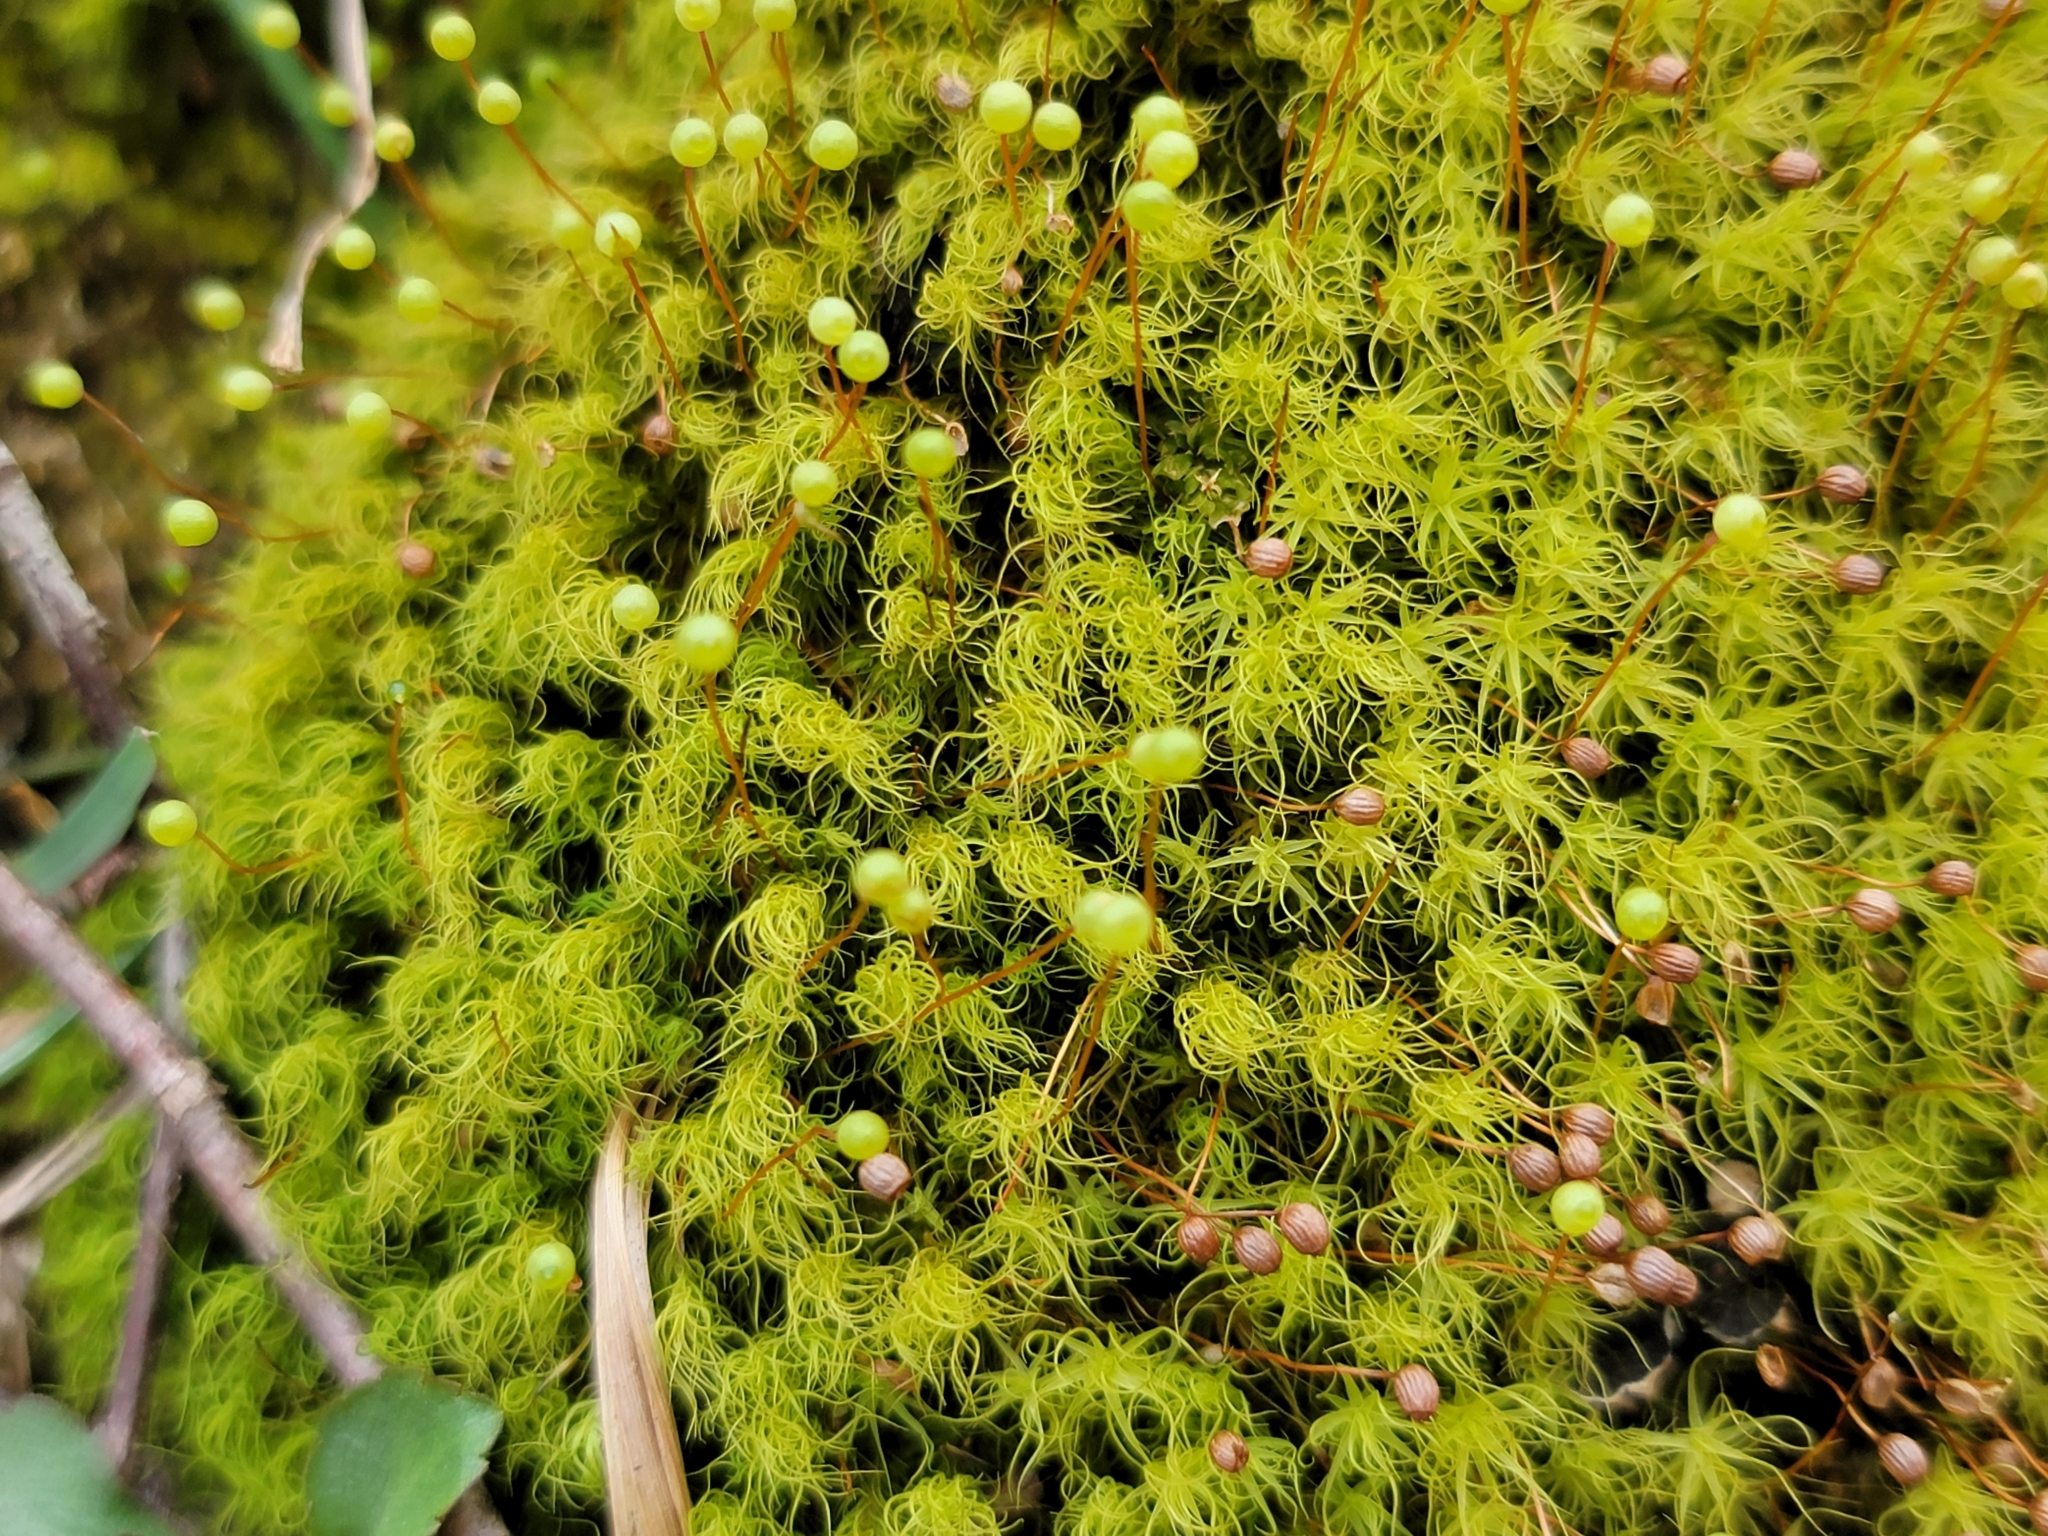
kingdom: Plantae
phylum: Bryophyta
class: Bryopsida
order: Bartramiales
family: Bartramiaceae
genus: Bartramia
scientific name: Bartramia ithyphylla
